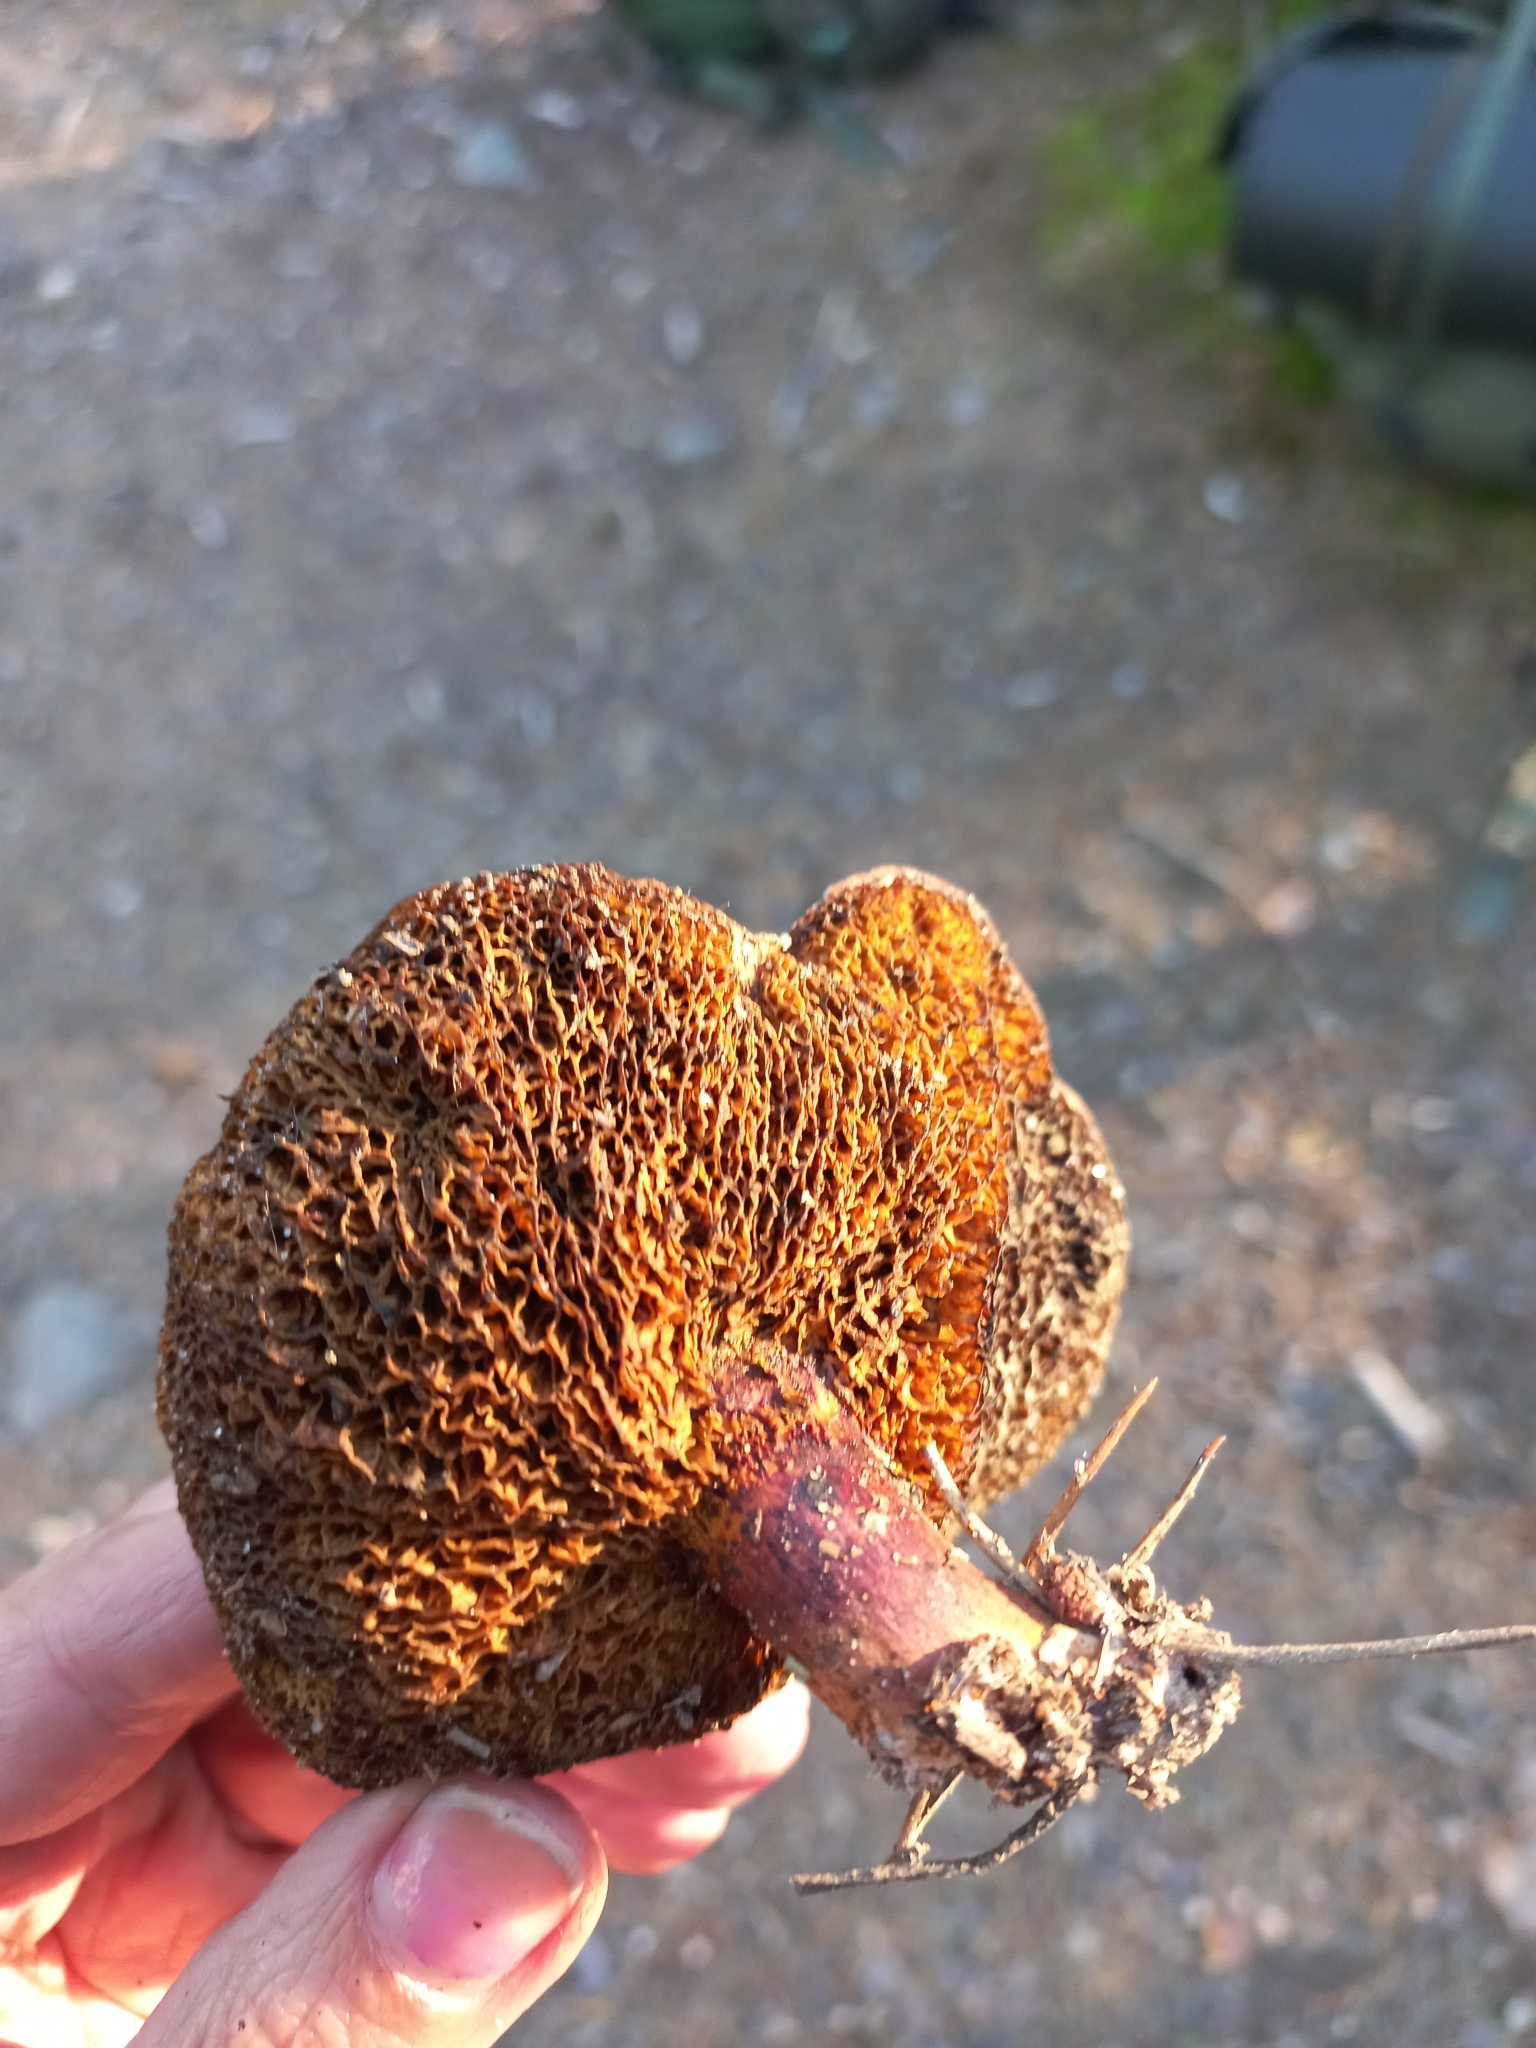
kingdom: Fungi
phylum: Basidiomycota
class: Agaricomycetes
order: Boletales
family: Suillaceae
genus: Suillus
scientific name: Suillus bovinus
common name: Bovine bolete
